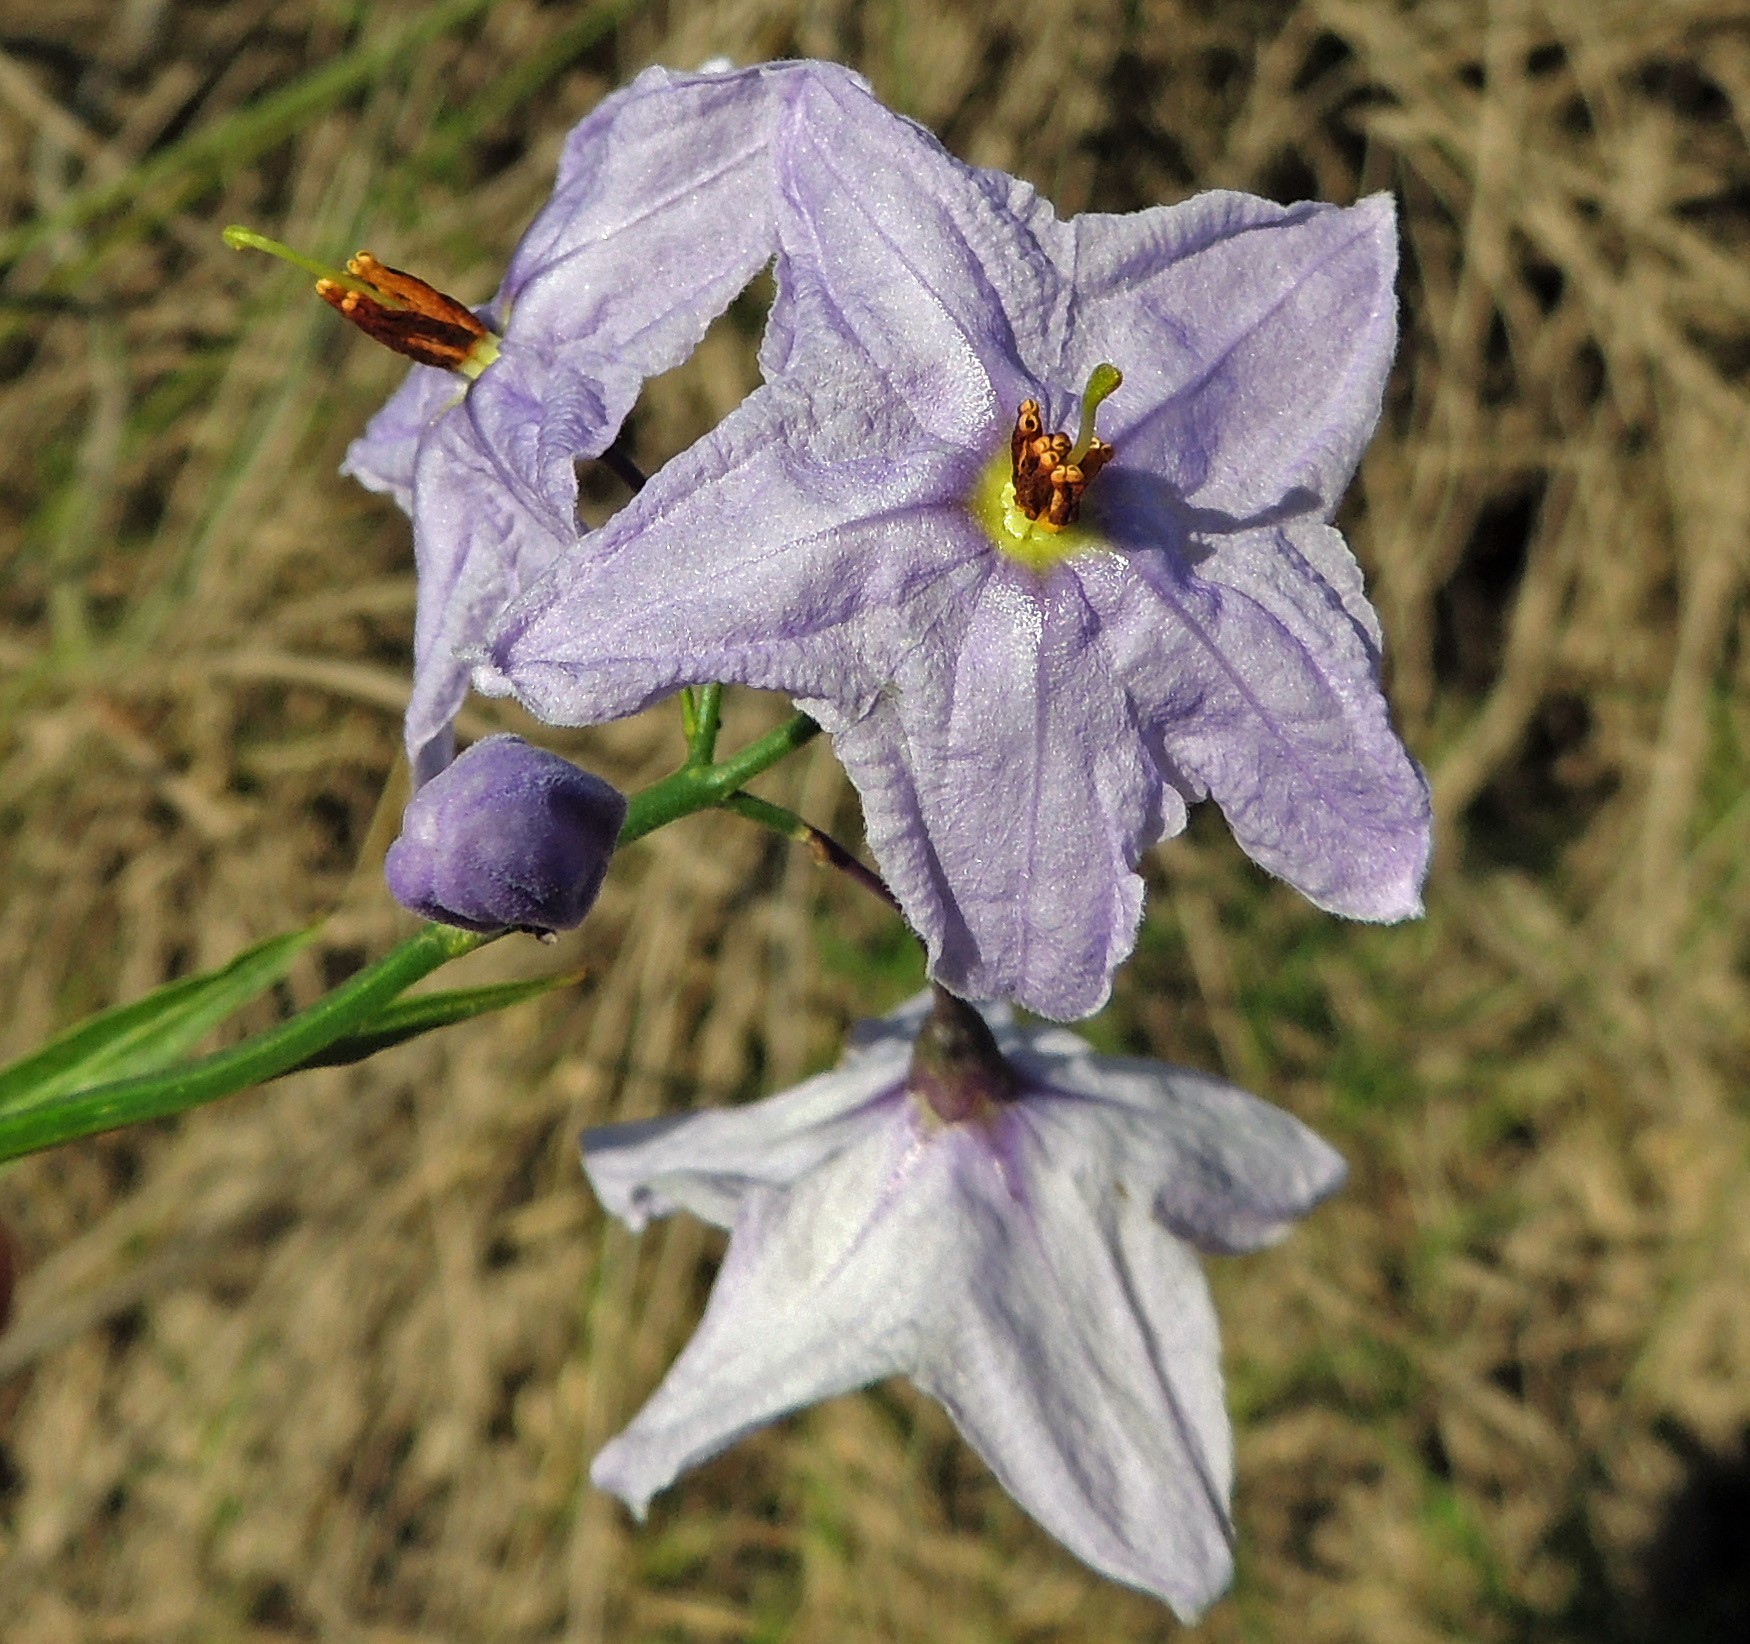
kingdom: Plantae
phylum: Tracheophyta
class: Magnoliopsida
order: Solanales
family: Solanaceae
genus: Solanum
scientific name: Solanum amygdalifolium
